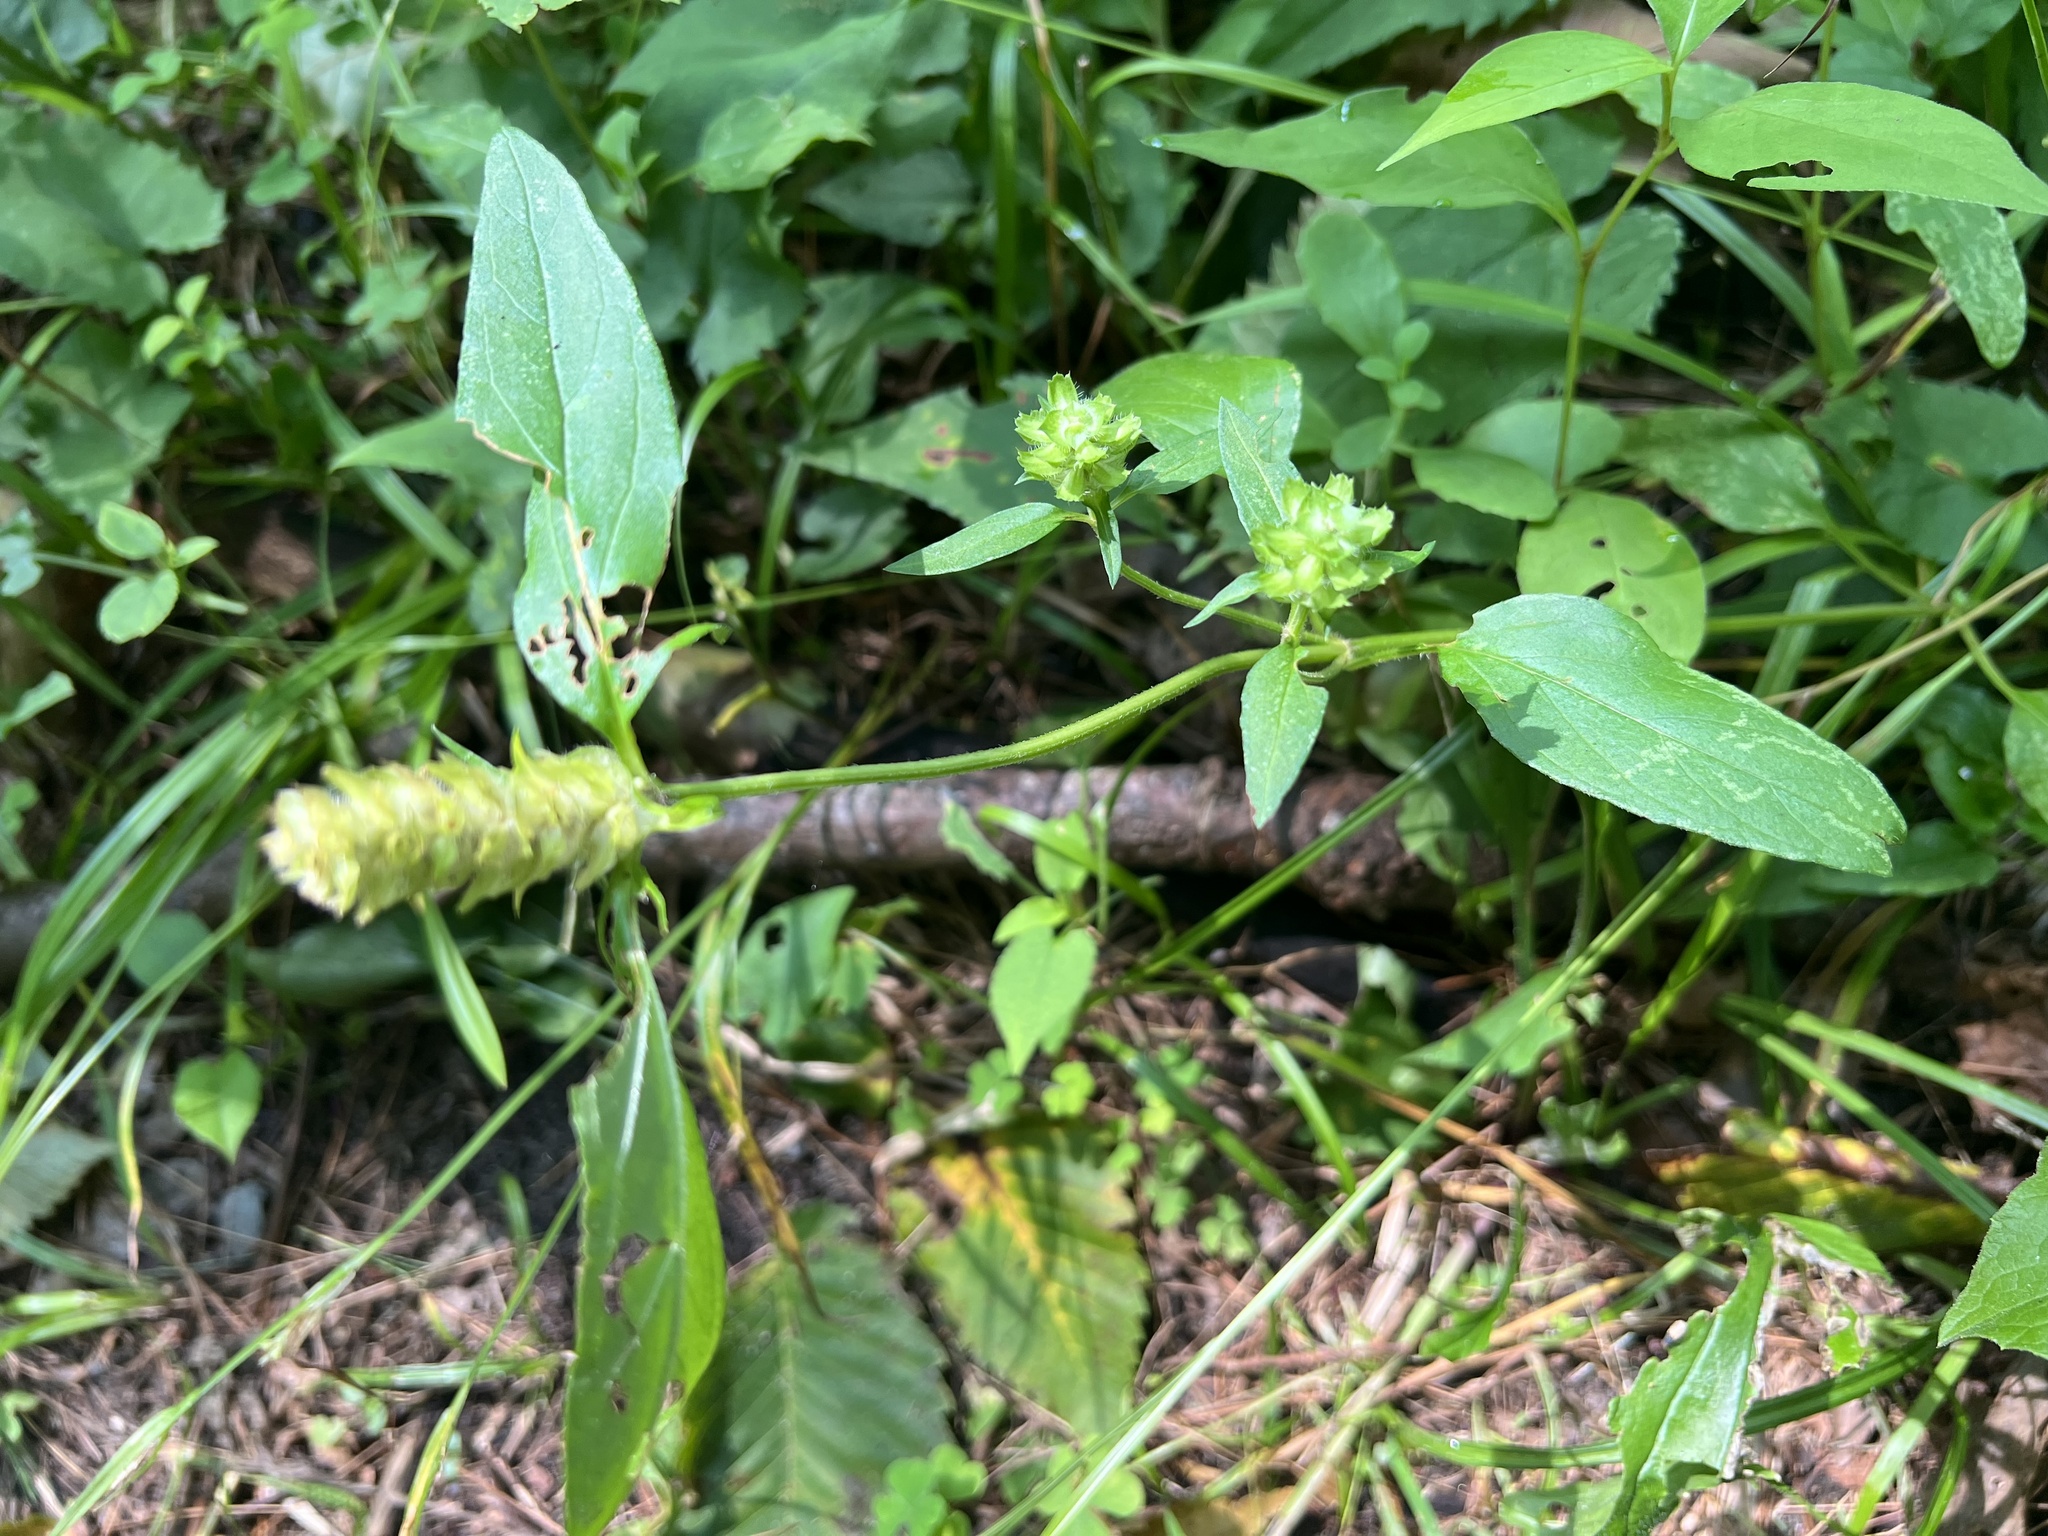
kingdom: Plantae
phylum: Tracheophyta
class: Magnoliopsida
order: Lamiales
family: Lamiaceae
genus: Prunella
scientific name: Prunella vulgaris
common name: Heal-all
